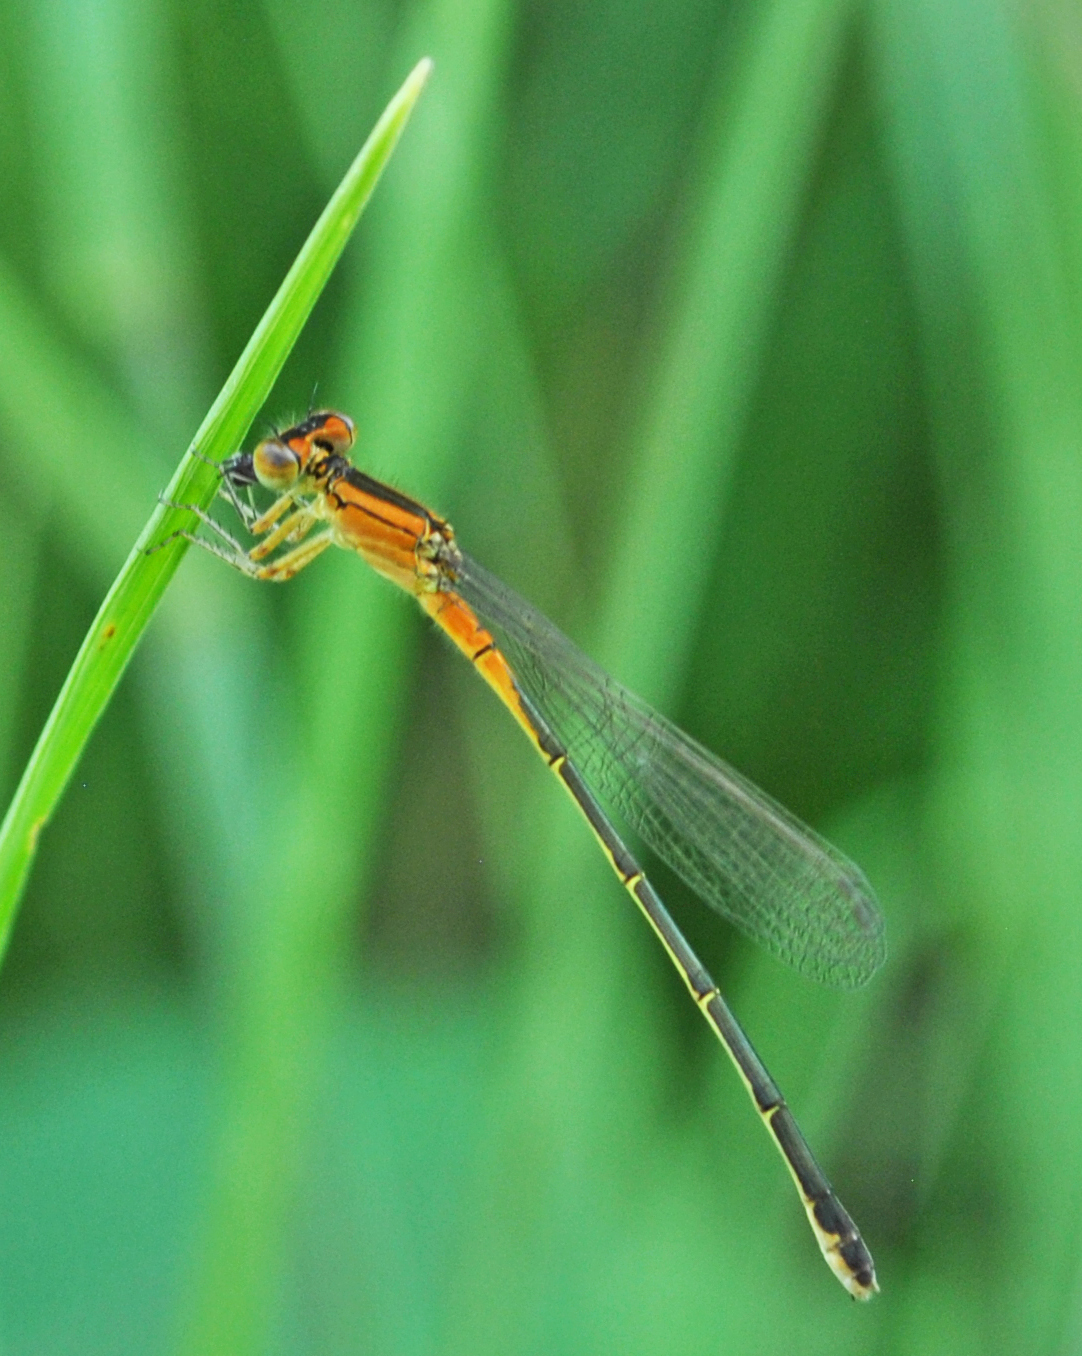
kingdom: Animalia
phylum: Arthropoda
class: Insecta
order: Odonata
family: Coenagrionidae
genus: Ischnura
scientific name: Ischnura verticalis
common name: Eastern forktail
